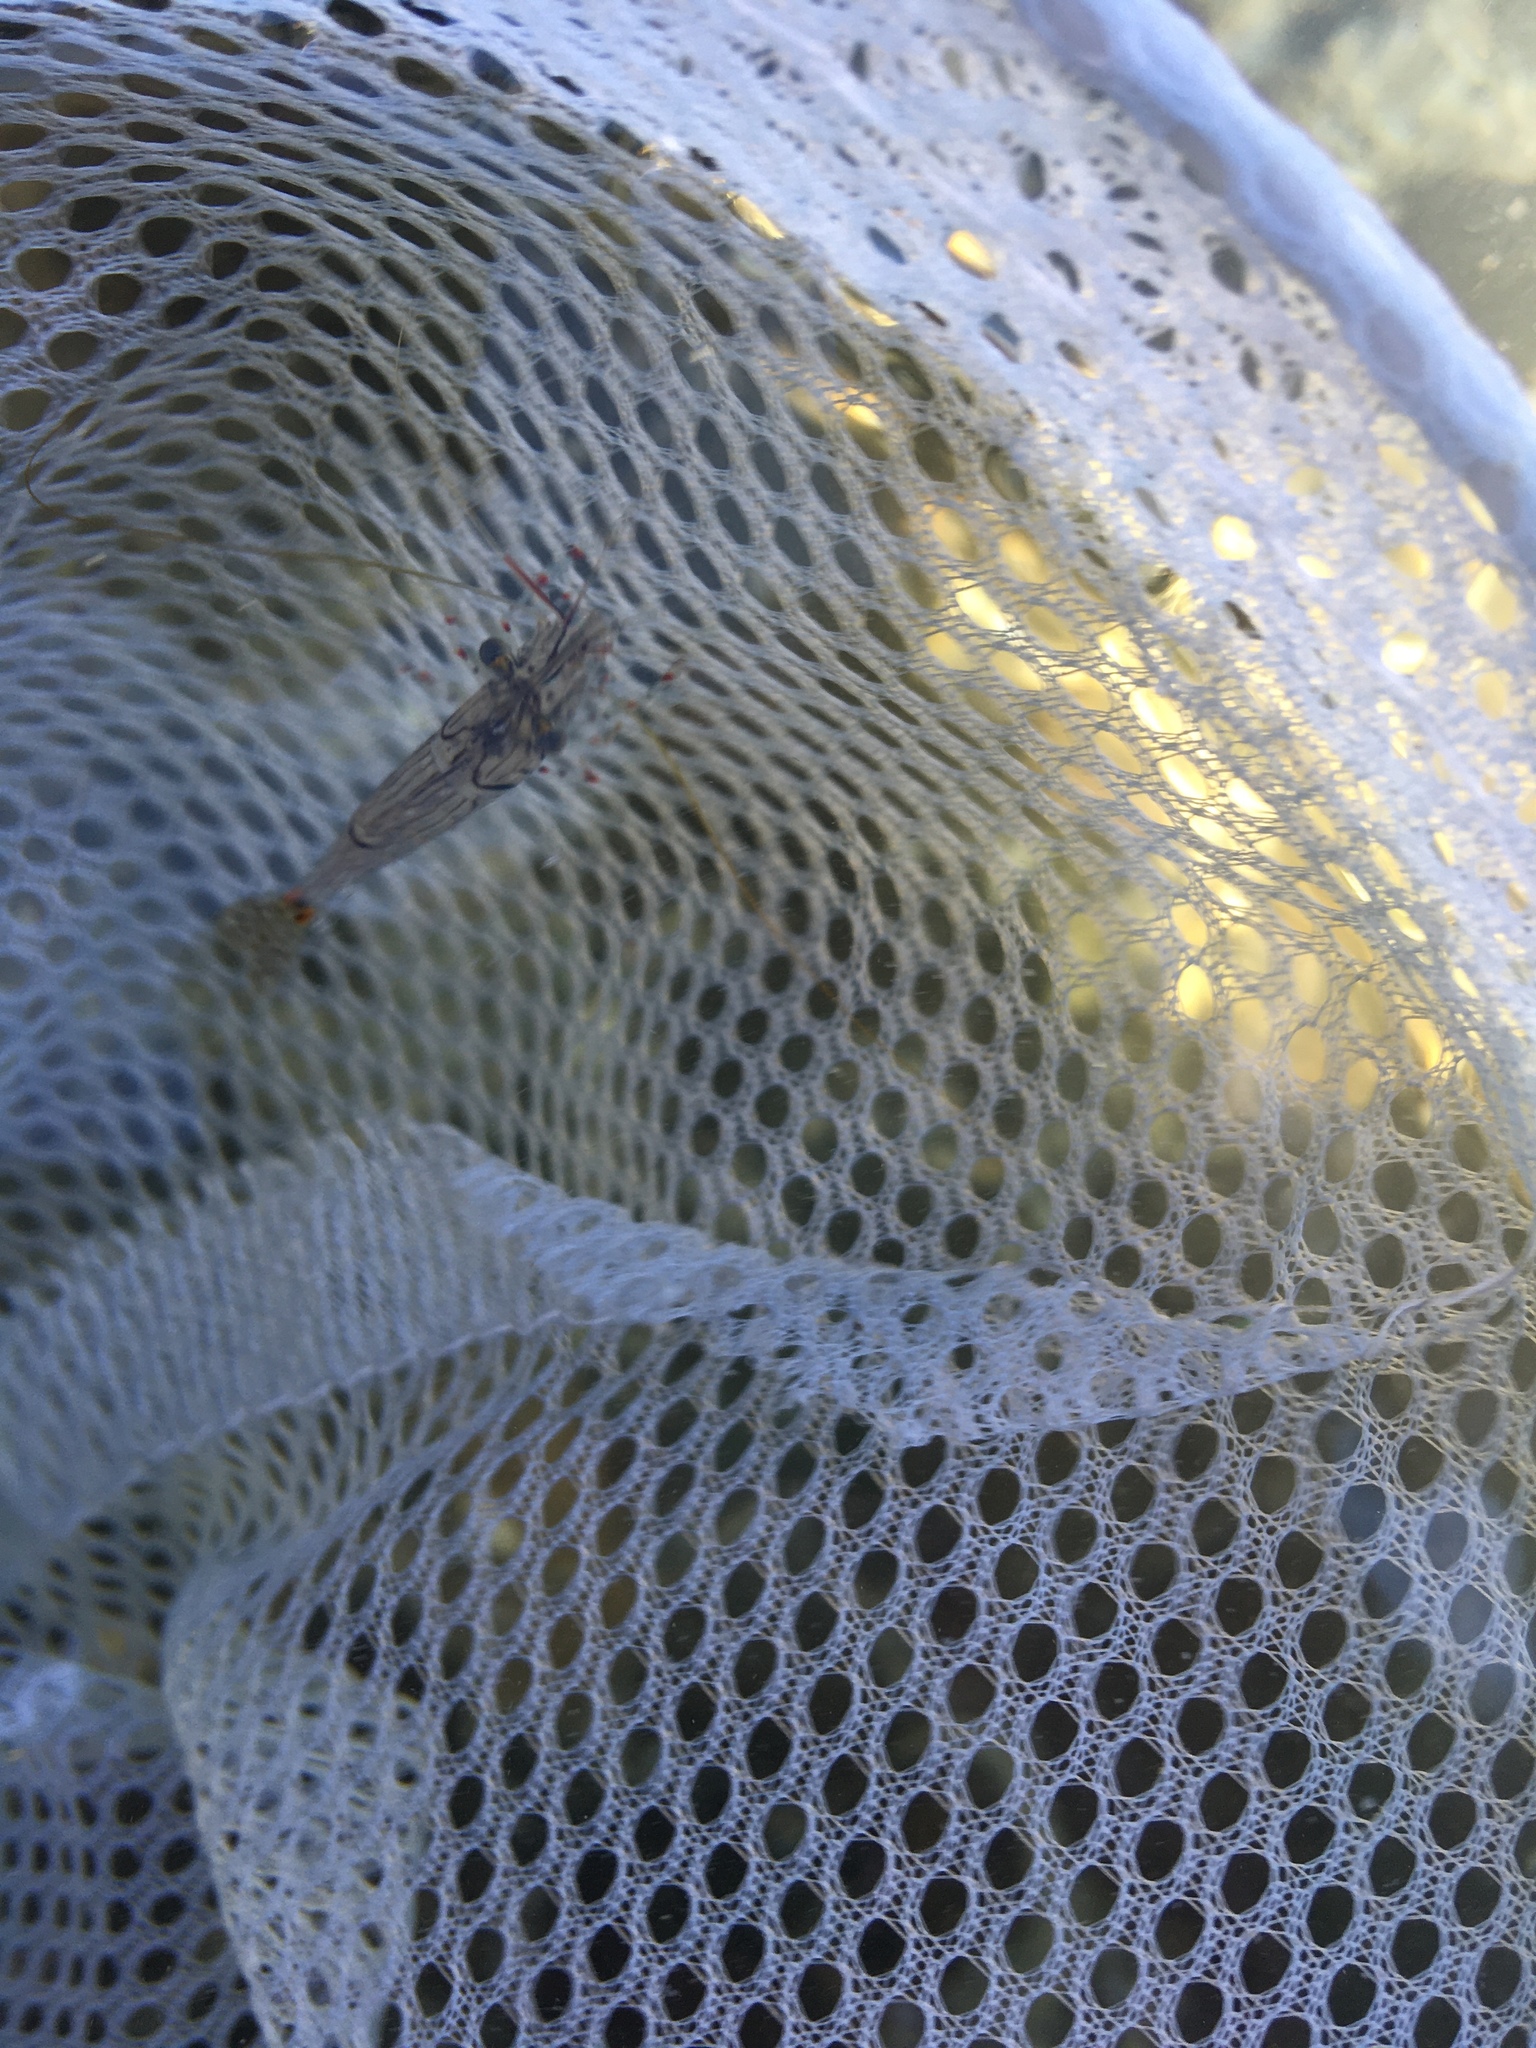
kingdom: Animalia
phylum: Arthropoda
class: Malacostraca
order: Decapoda
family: Palaemonidae
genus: Palaemon
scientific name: Palaemon affinis
